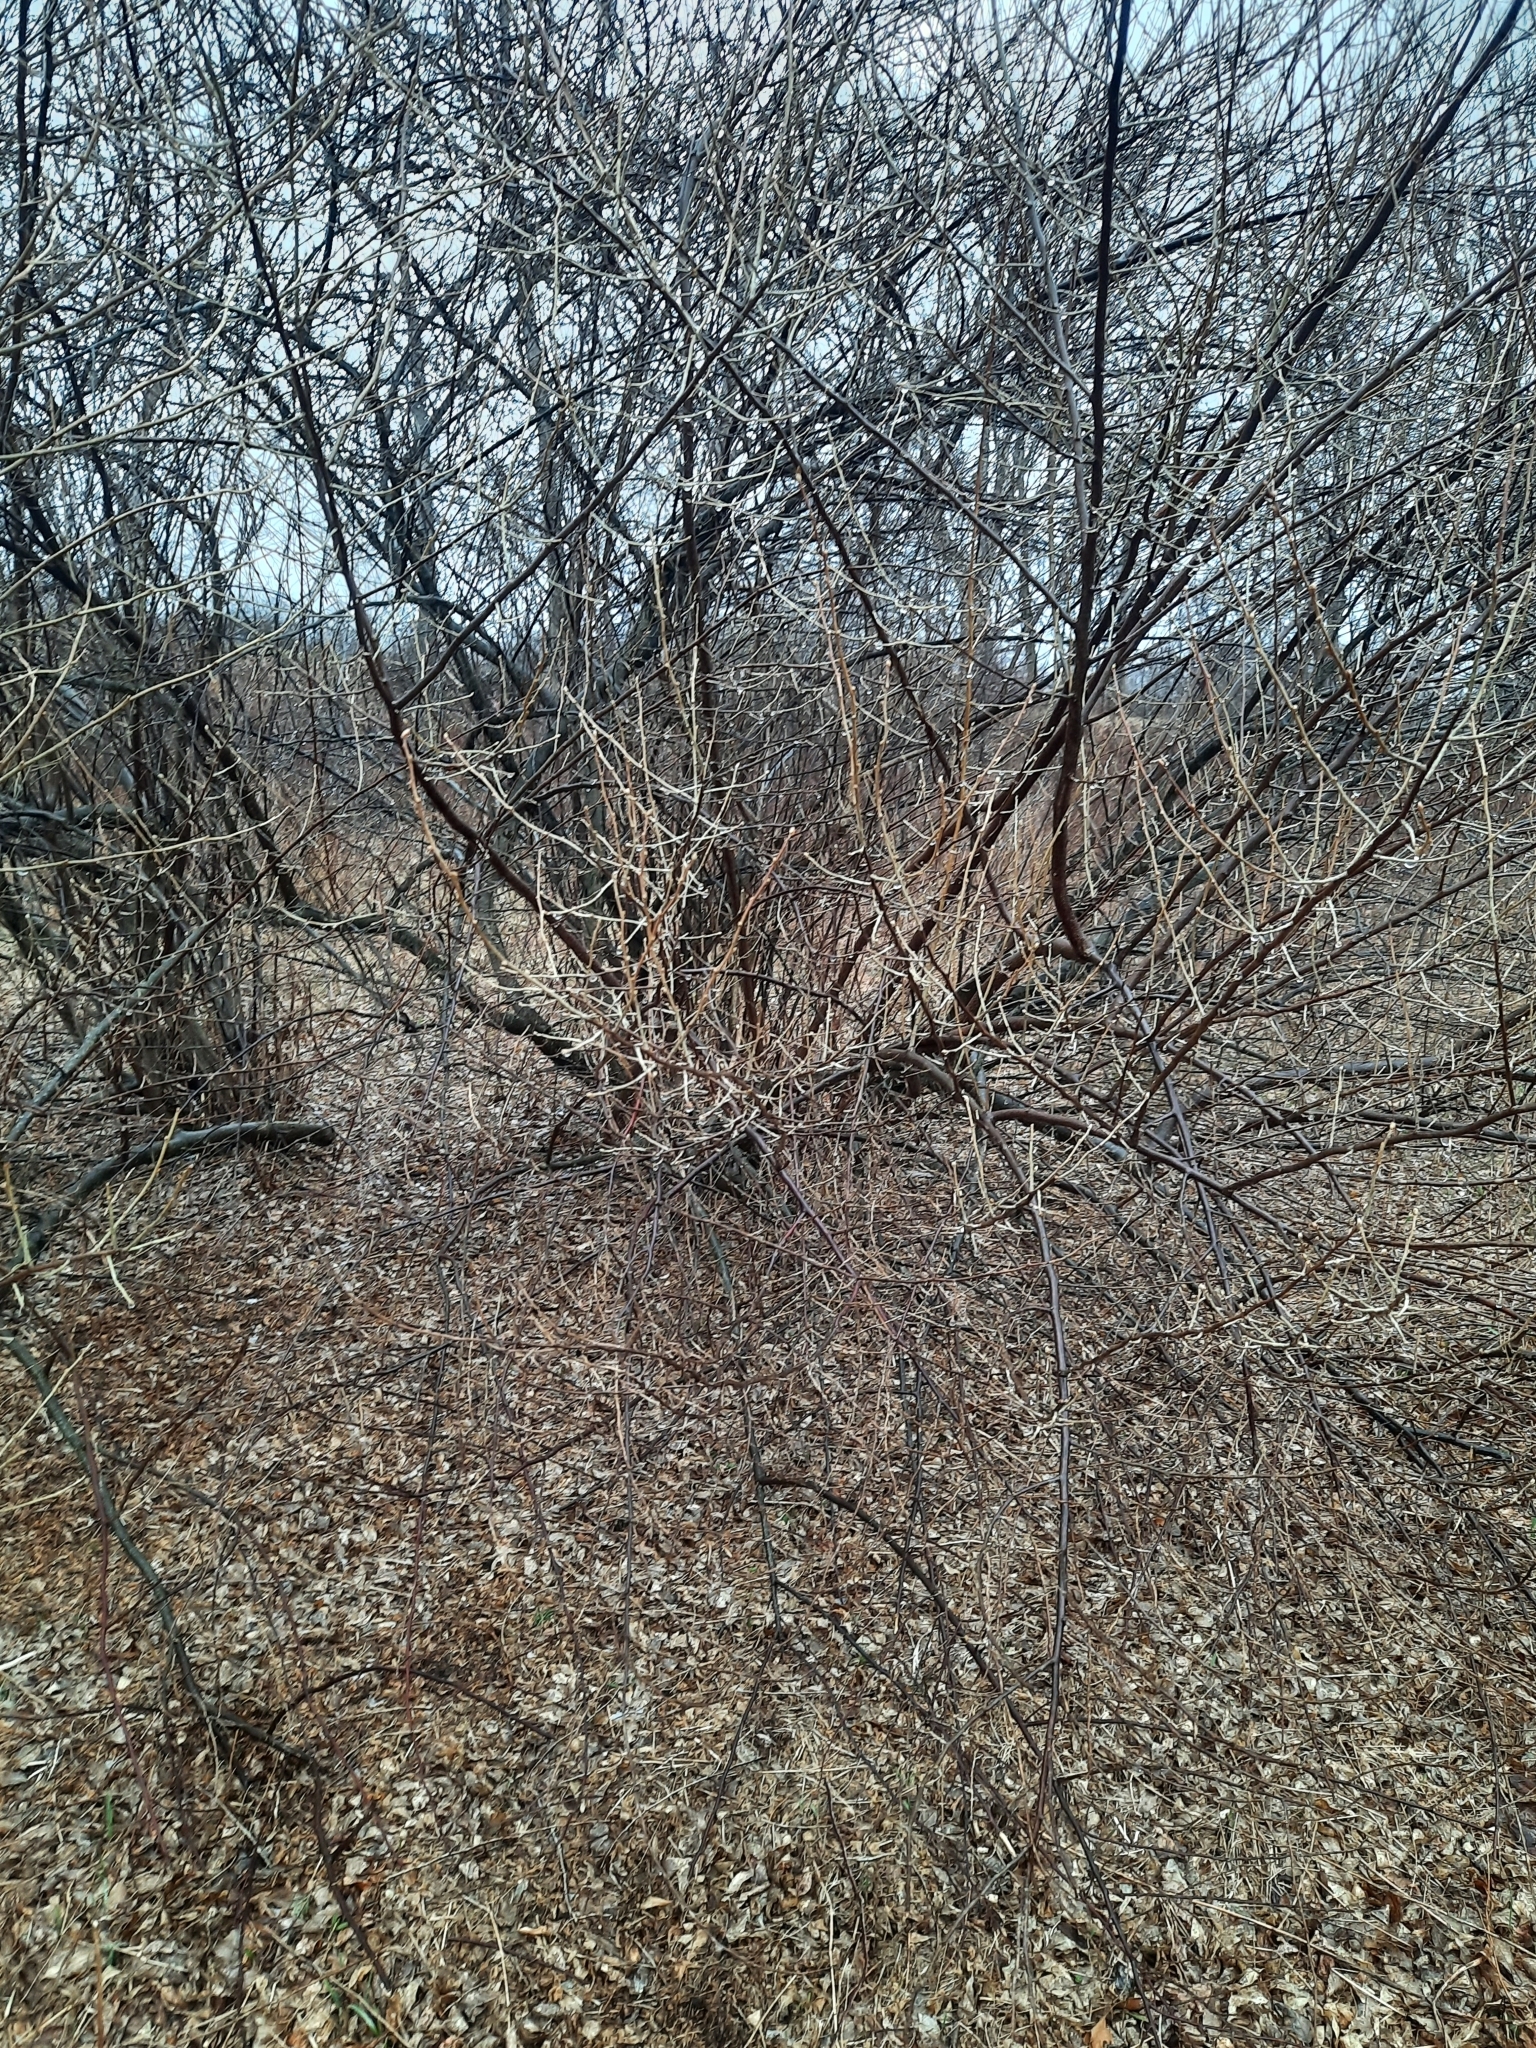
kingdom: Plantae
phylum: Tracheophyta
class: Magnoliopsida
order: Rosales
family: Elaeagnaceae
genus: Elaeagnus
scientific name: Elaeagnus umbellata
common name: Autumn olive
